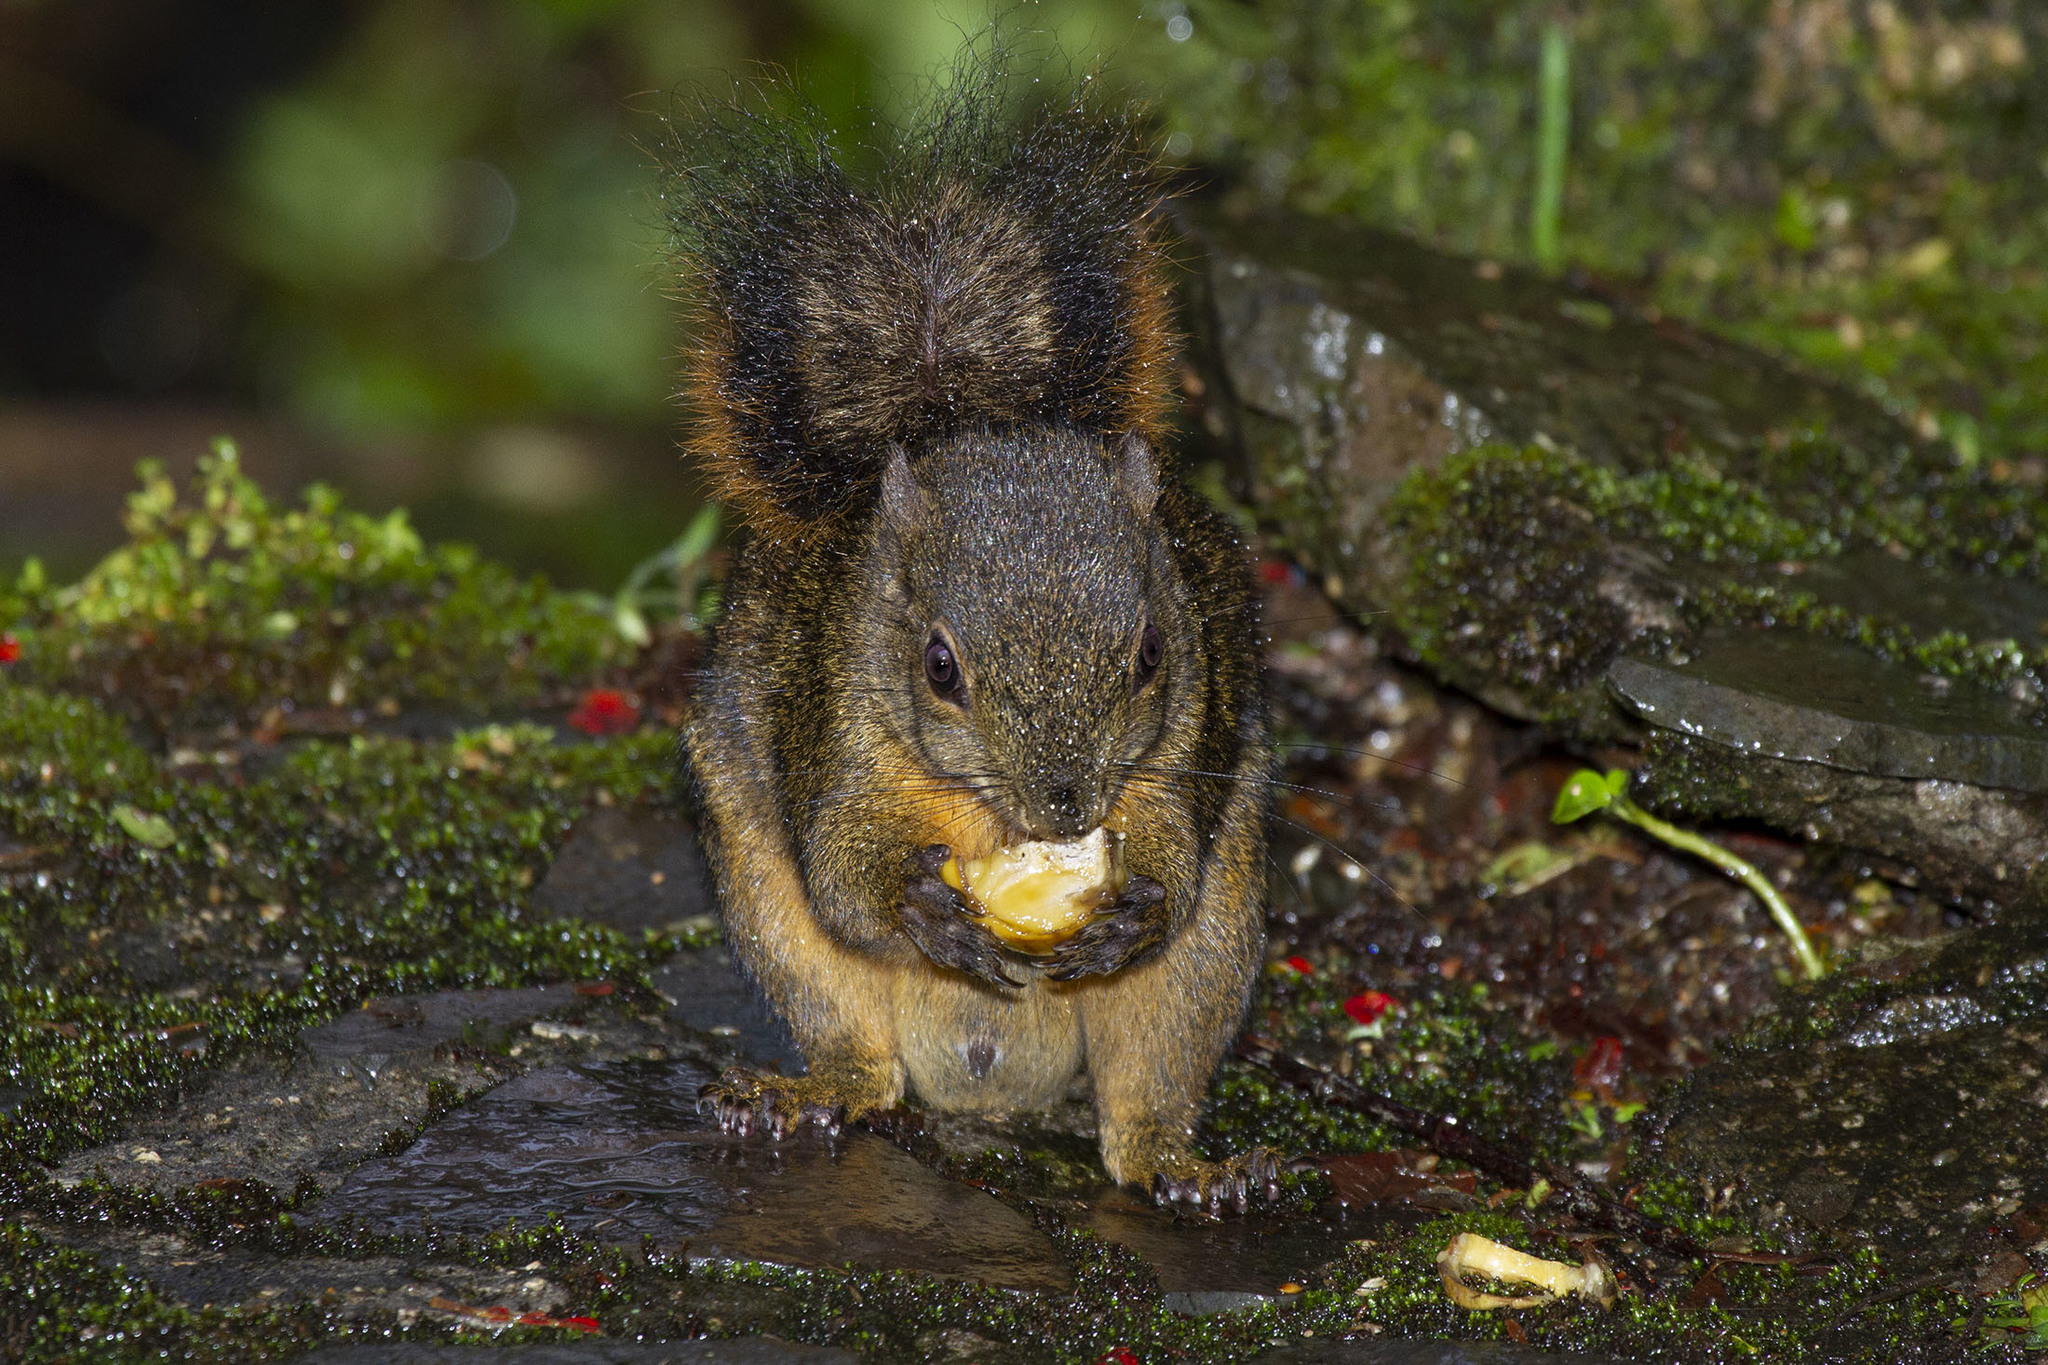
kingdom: Animalia
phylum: Chordata
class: Mammalia
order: Rodentia
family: Sciuridae
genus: Sciurus
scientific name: Sciurus granatensis
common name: Red-tailed squirrel
